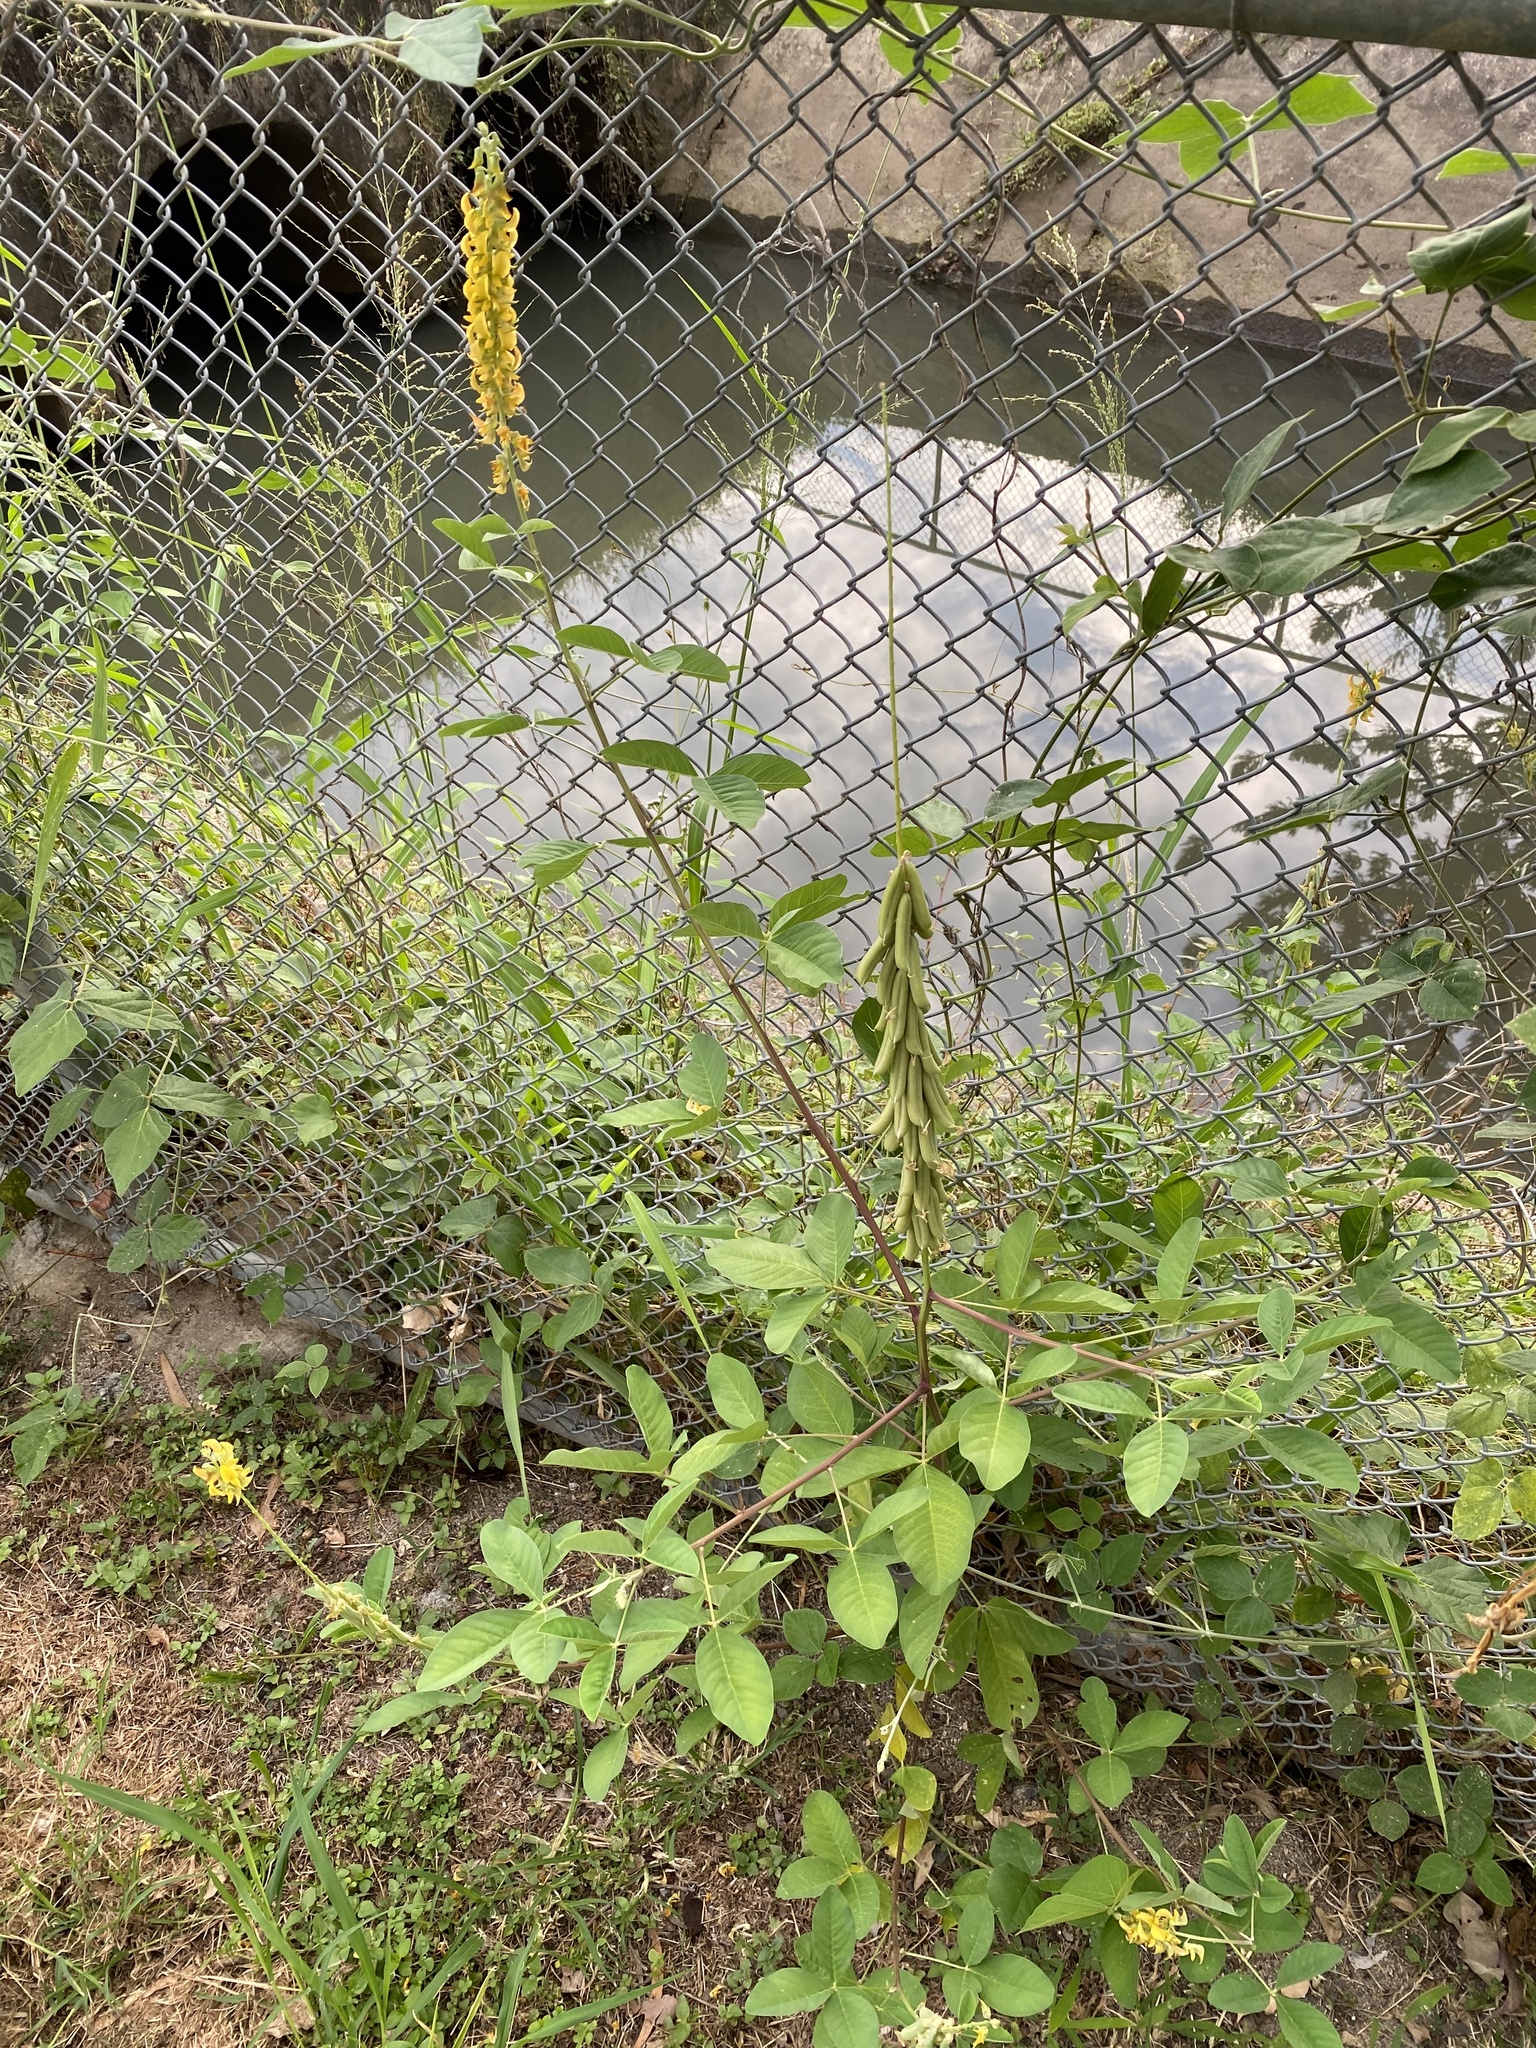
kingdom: Plantae
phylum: Tracheophyta
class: Magnoliopsida
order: Fabales
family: Fabaceae
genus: Crotalaria
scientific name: Crotalaria pallida
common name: Smooth rattlebox
